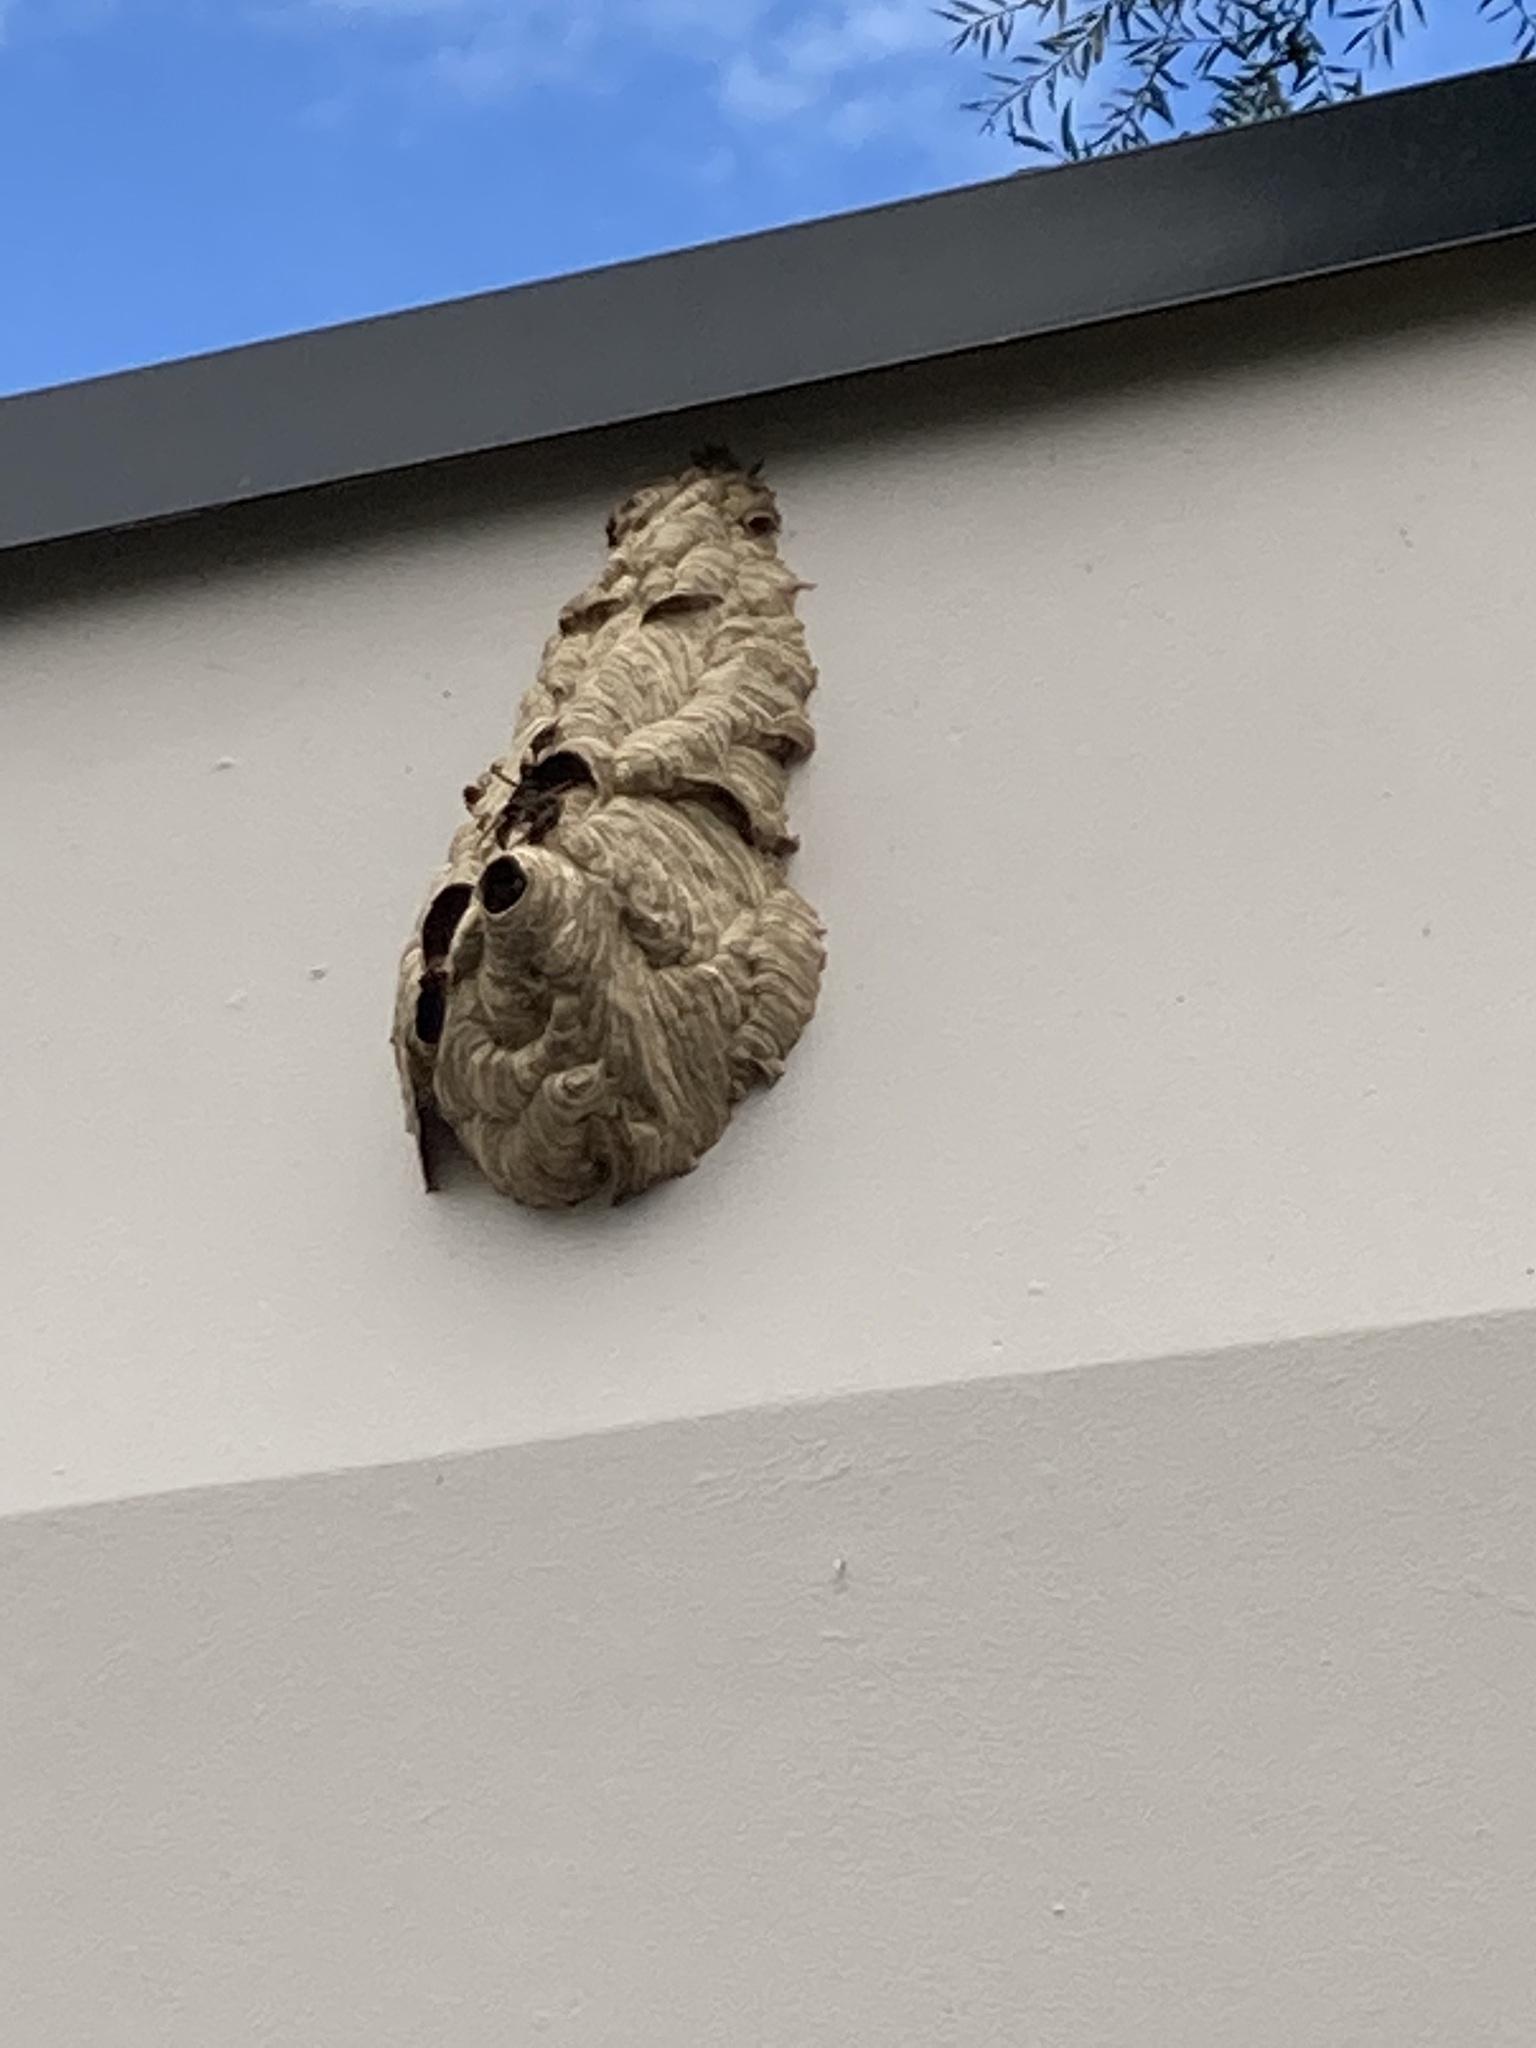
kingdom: Animalia
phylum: Arthropoda
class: Insecta
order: Hymenoptera
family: Vespidae
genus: Vespa
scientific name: Vespa velutina
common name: Asian hornet
